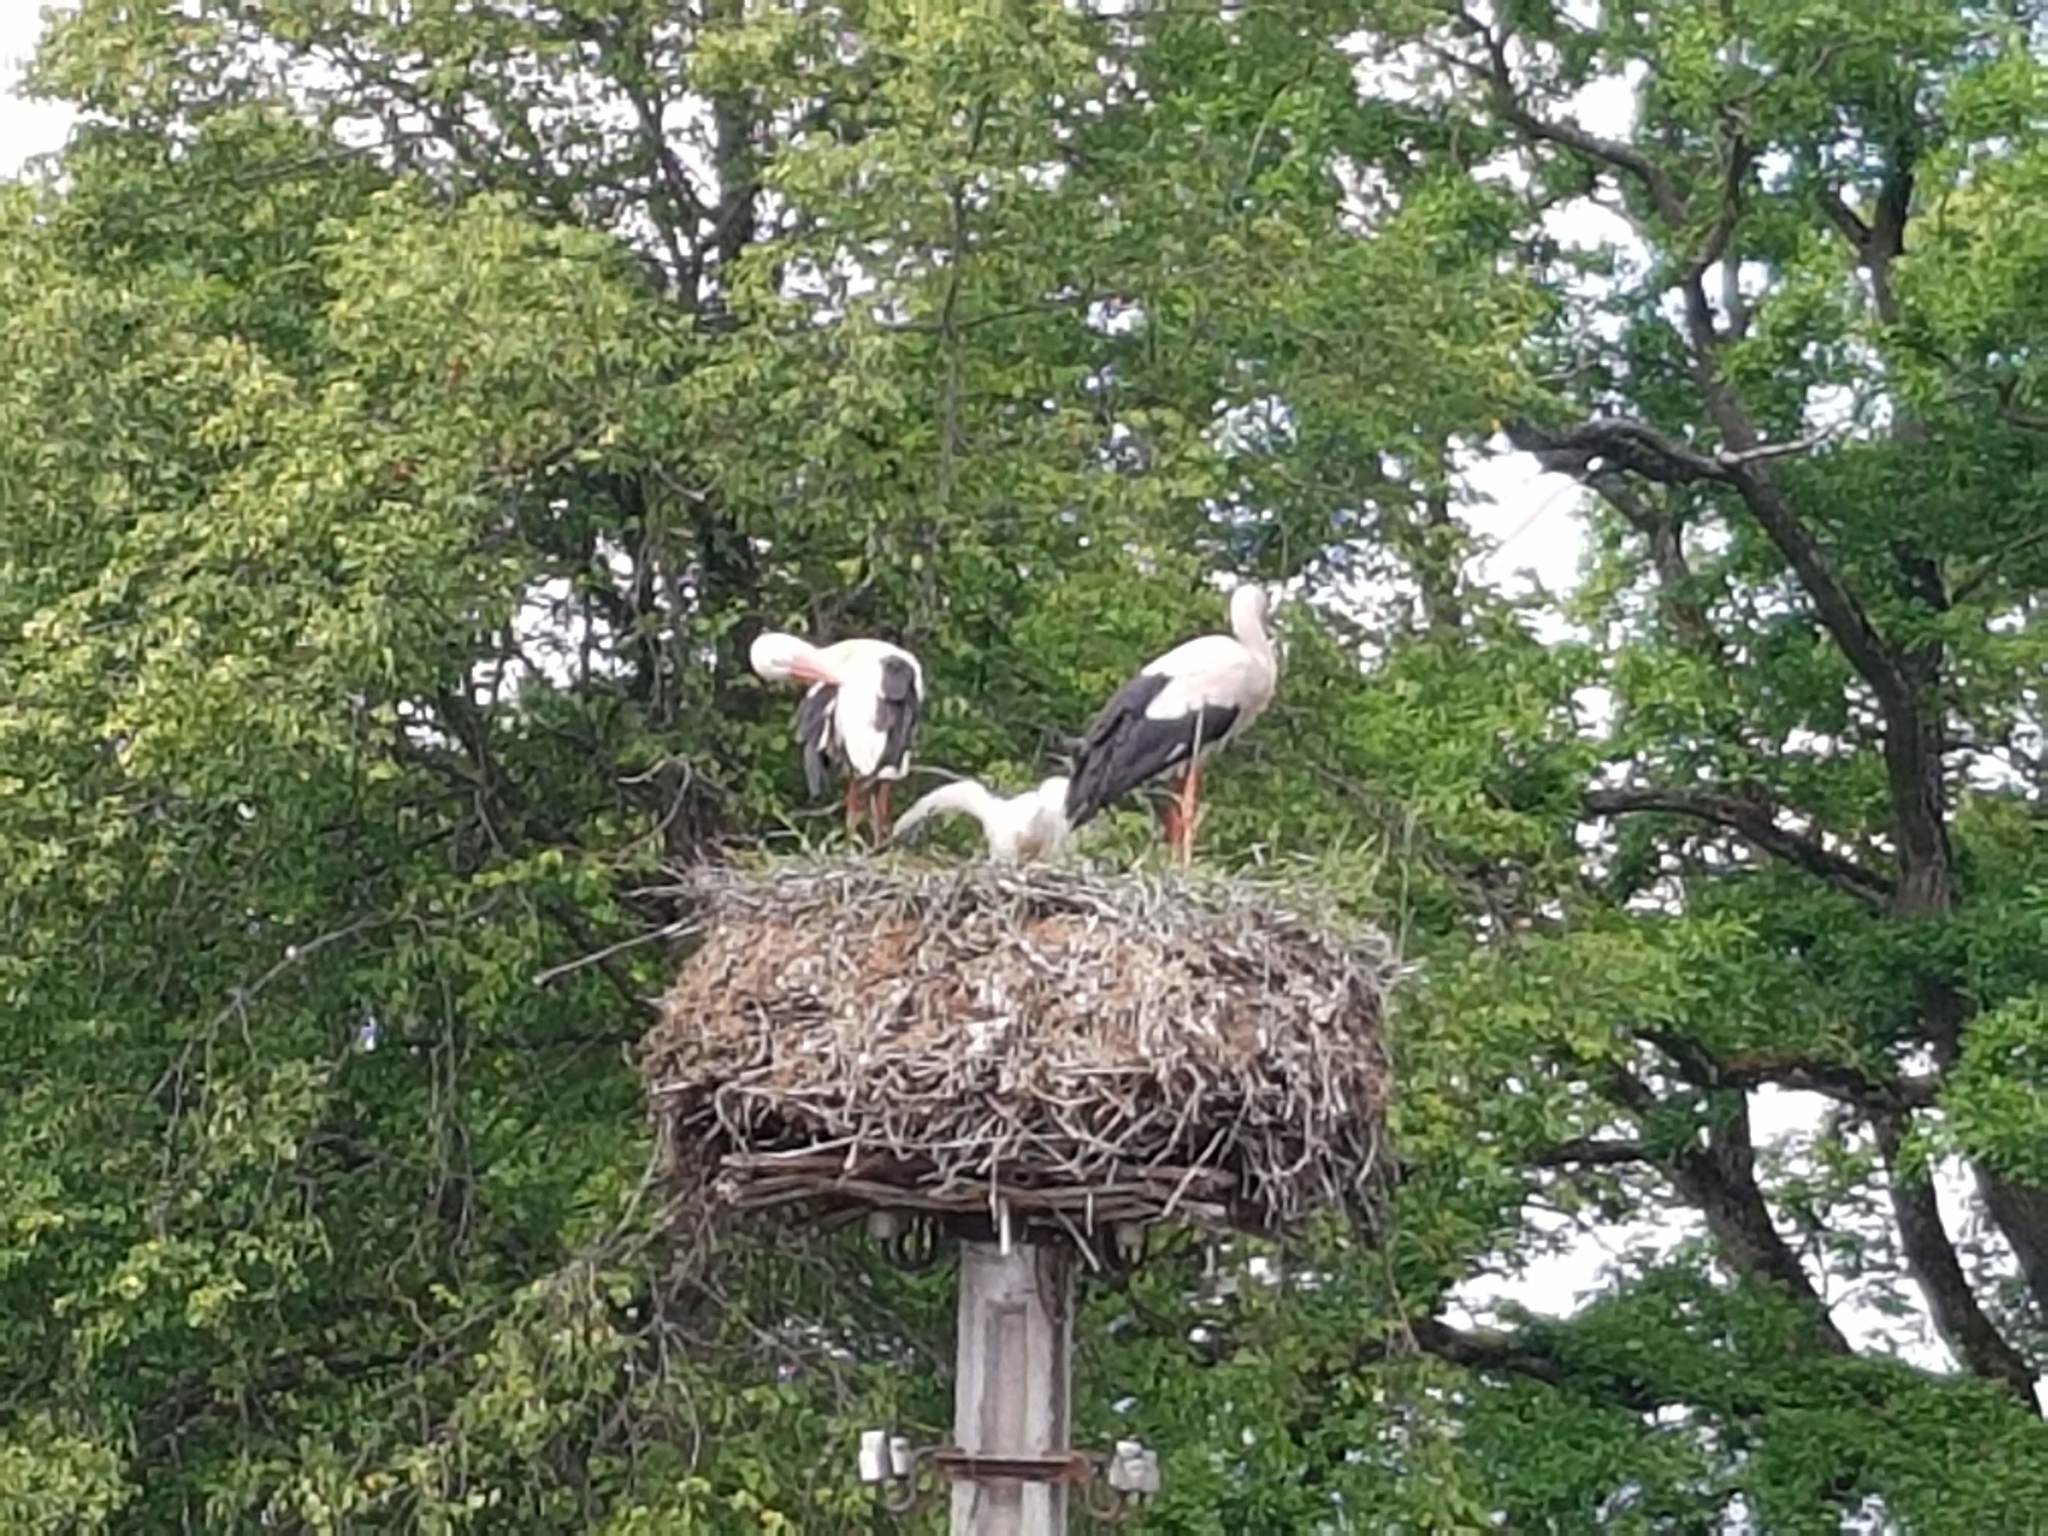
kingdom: Animalia
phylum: Chordata
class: Aves
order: Ciconiiformes
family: Ciconiidae
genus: Ciconia
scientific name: Ciconia ciconia
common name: White stork
